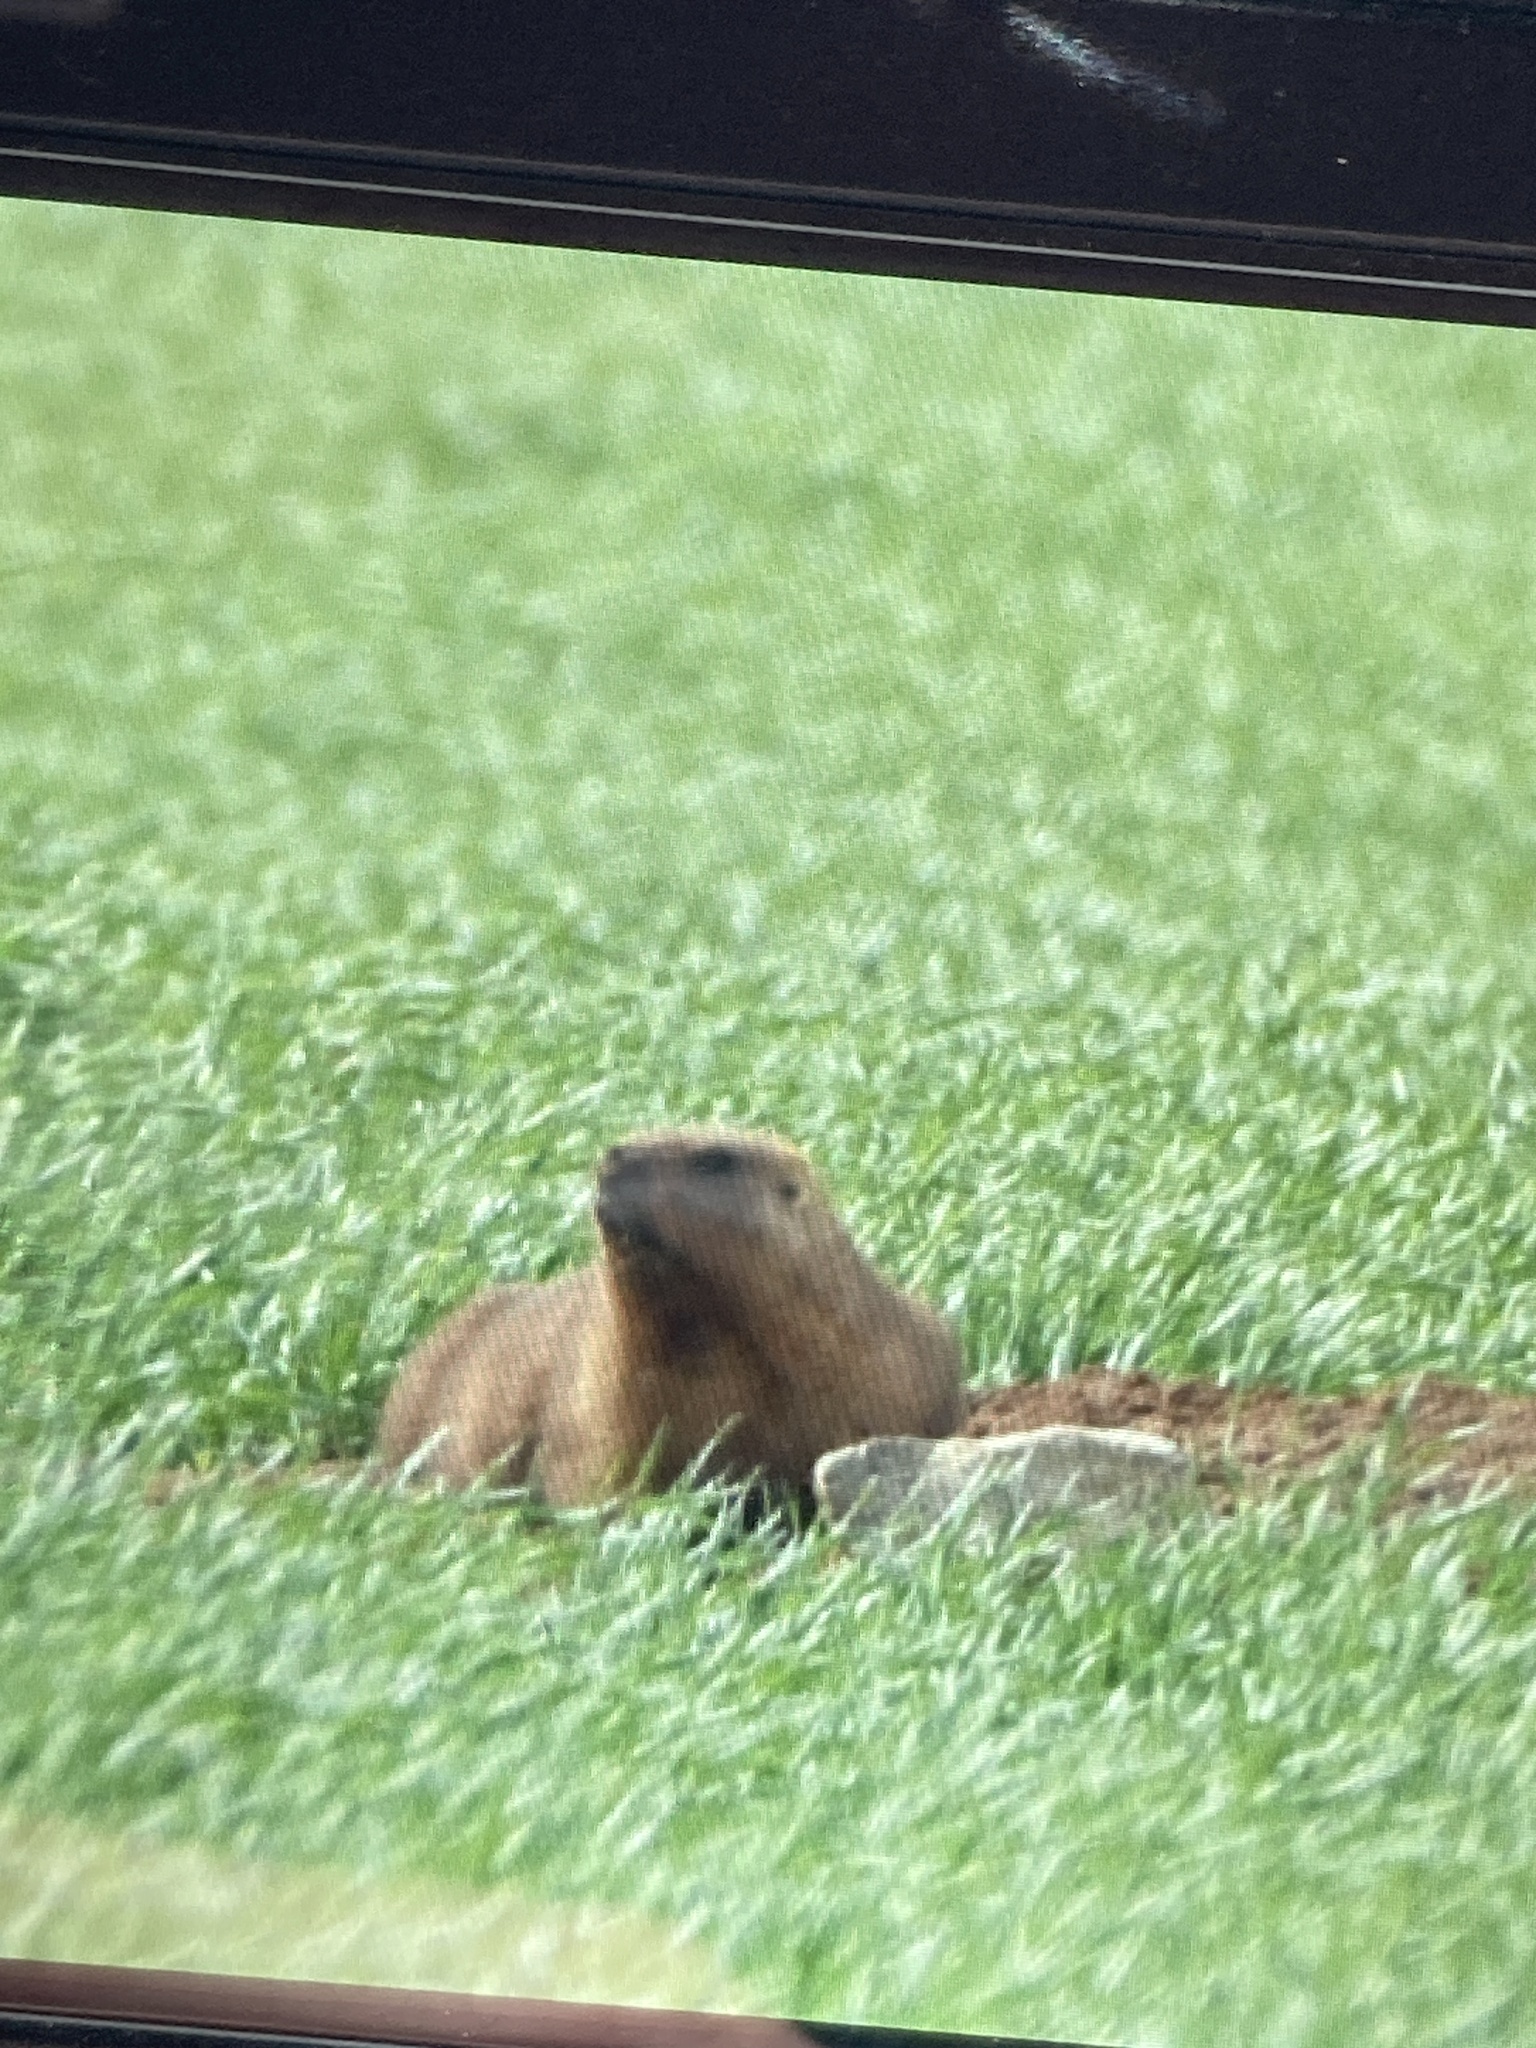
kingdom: Animalia
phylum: Chordata
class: Mammalia
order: Rodentia
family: Sciuridae
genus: Marmota
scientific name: Marmota bobak
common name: Bobak marmot
